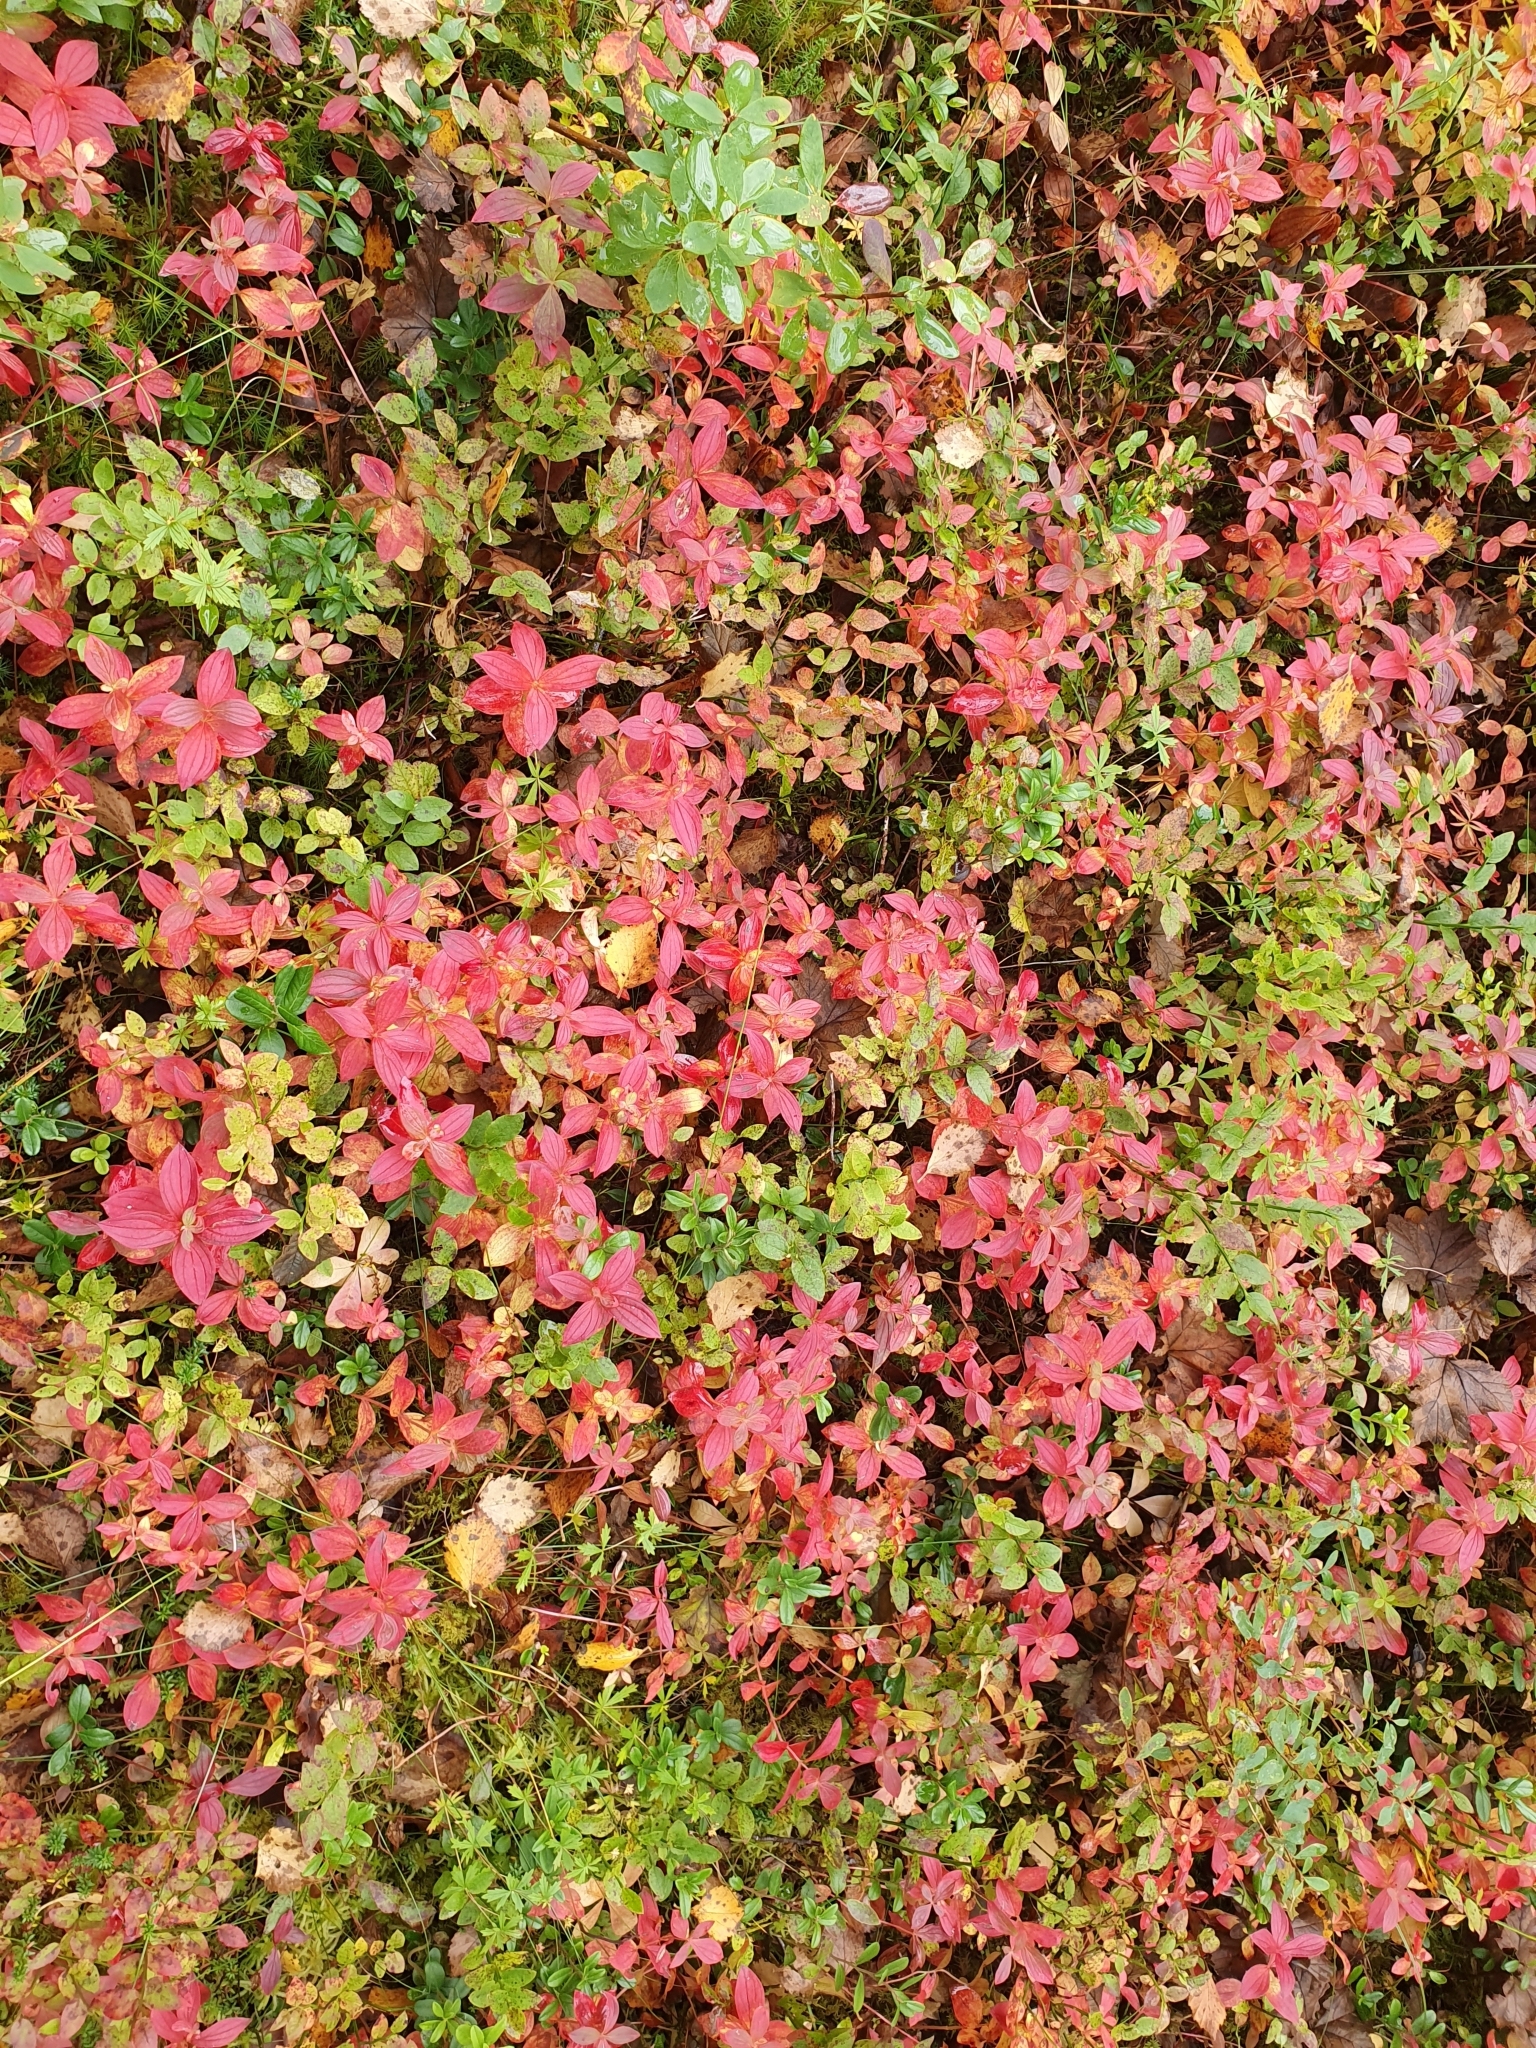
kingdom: Plantae
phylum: Tracheophyta
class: Magnoliopsida
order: Cornales
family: Cornaceae
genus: Cornus
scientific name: Cornus suecica
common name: Dwarf cornel
